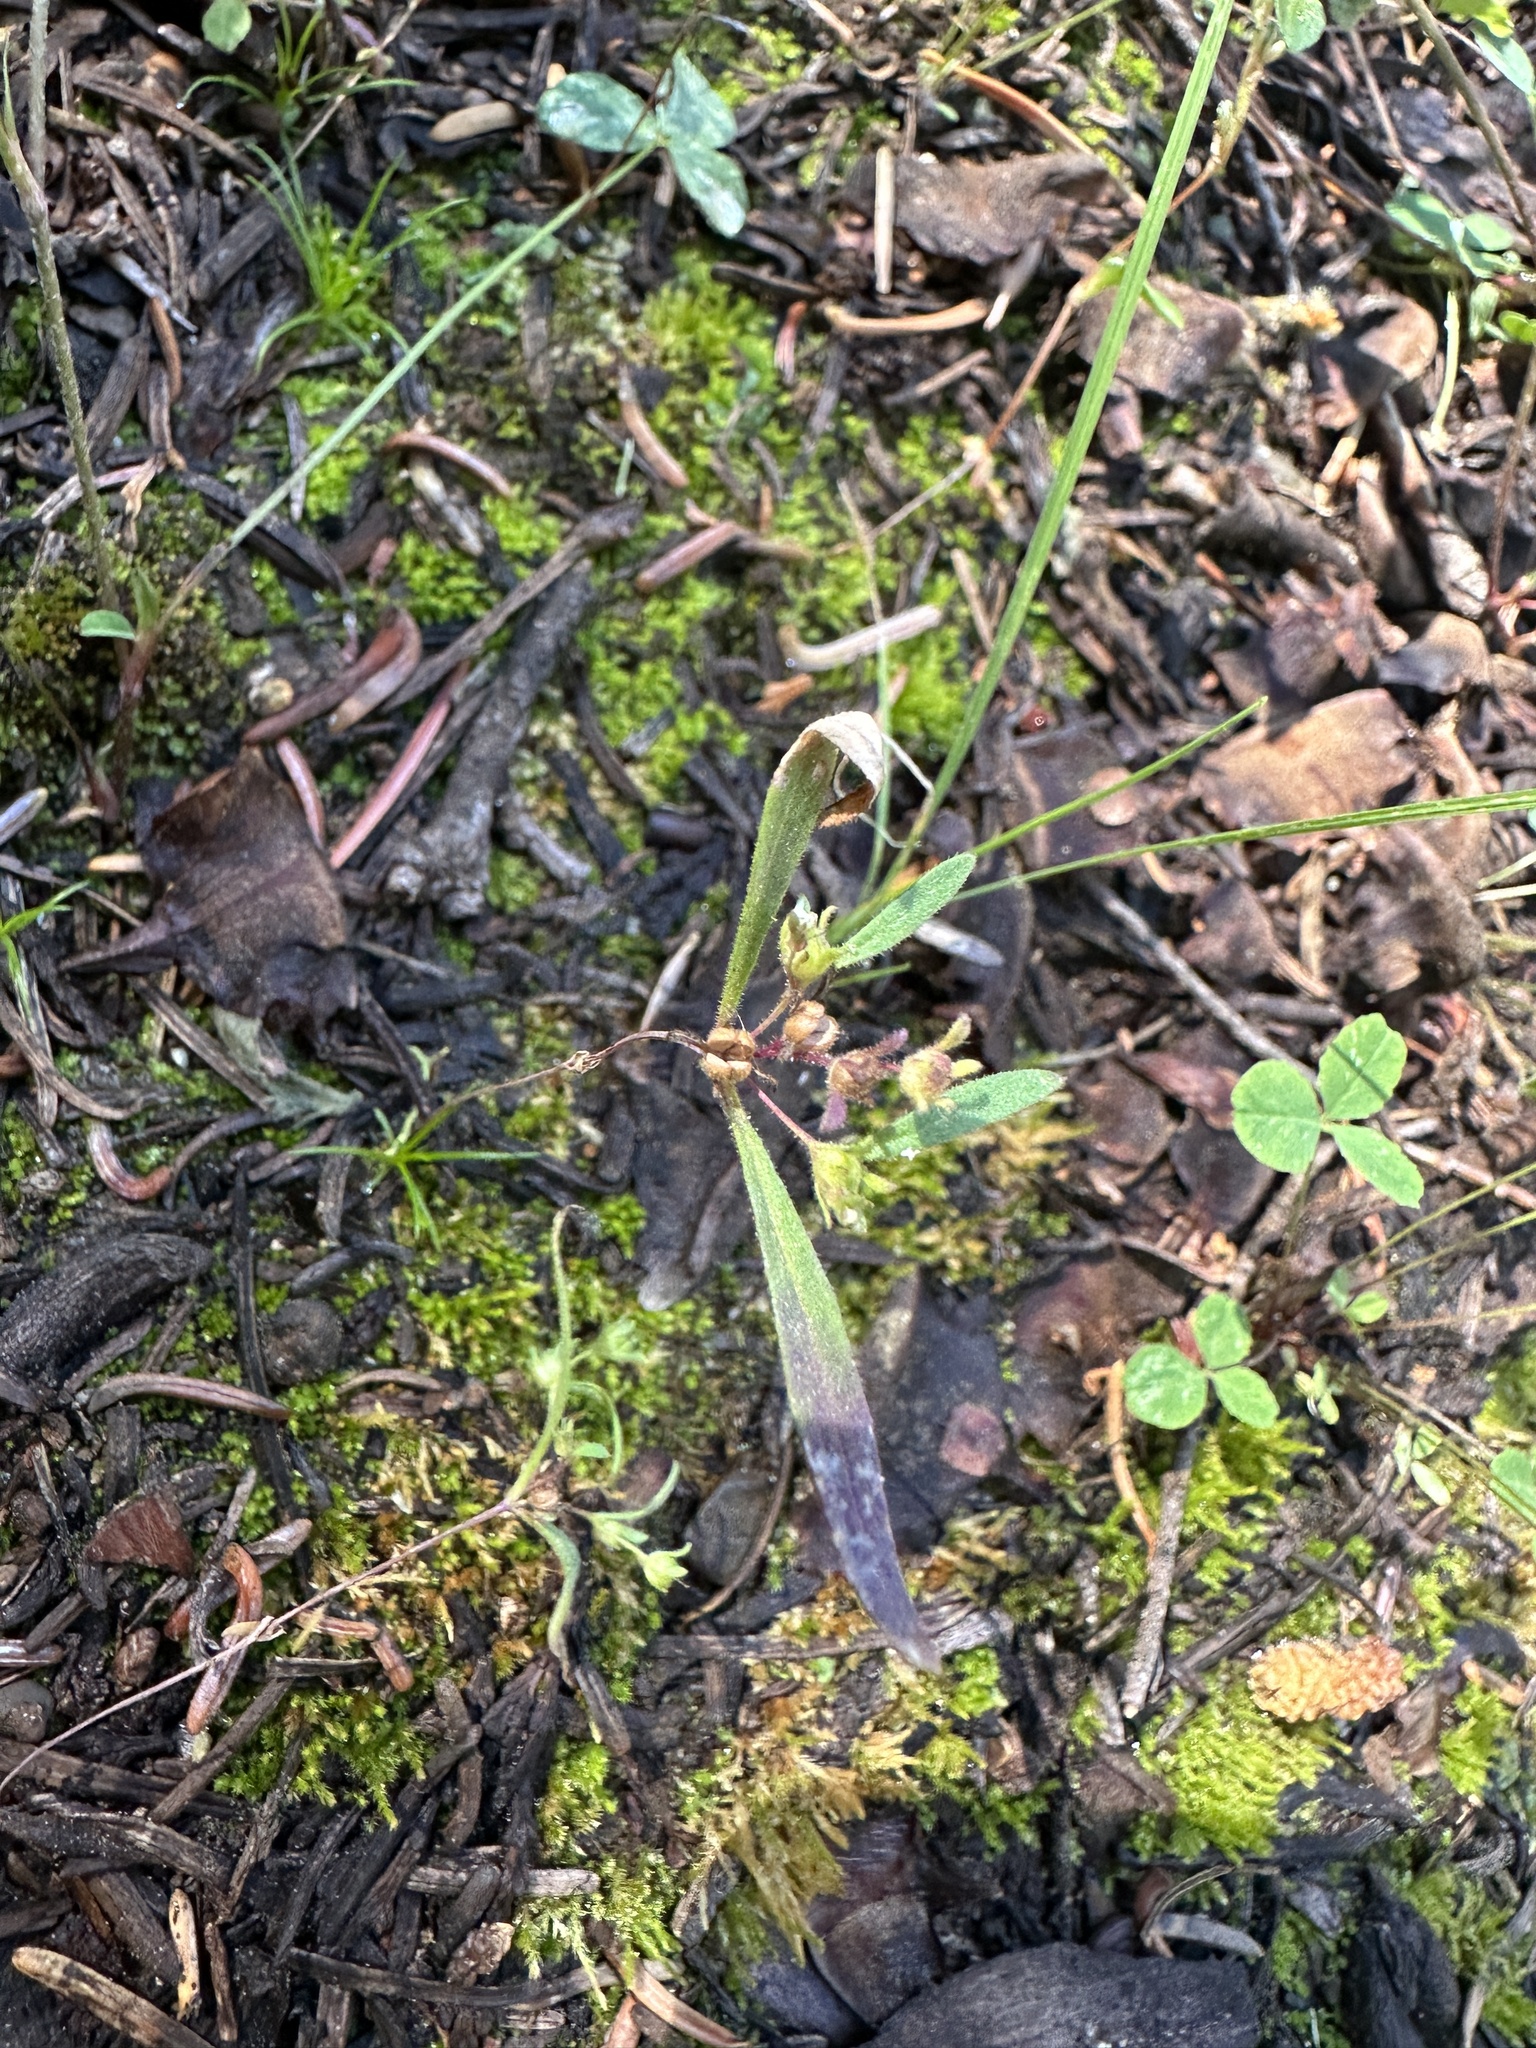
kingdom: Plantae
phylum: Tracheophyta
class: Magnoliopsida
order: Boraginales
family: Hydrophyllaceae
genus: Phacelia
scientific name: Phacelia racemosa
